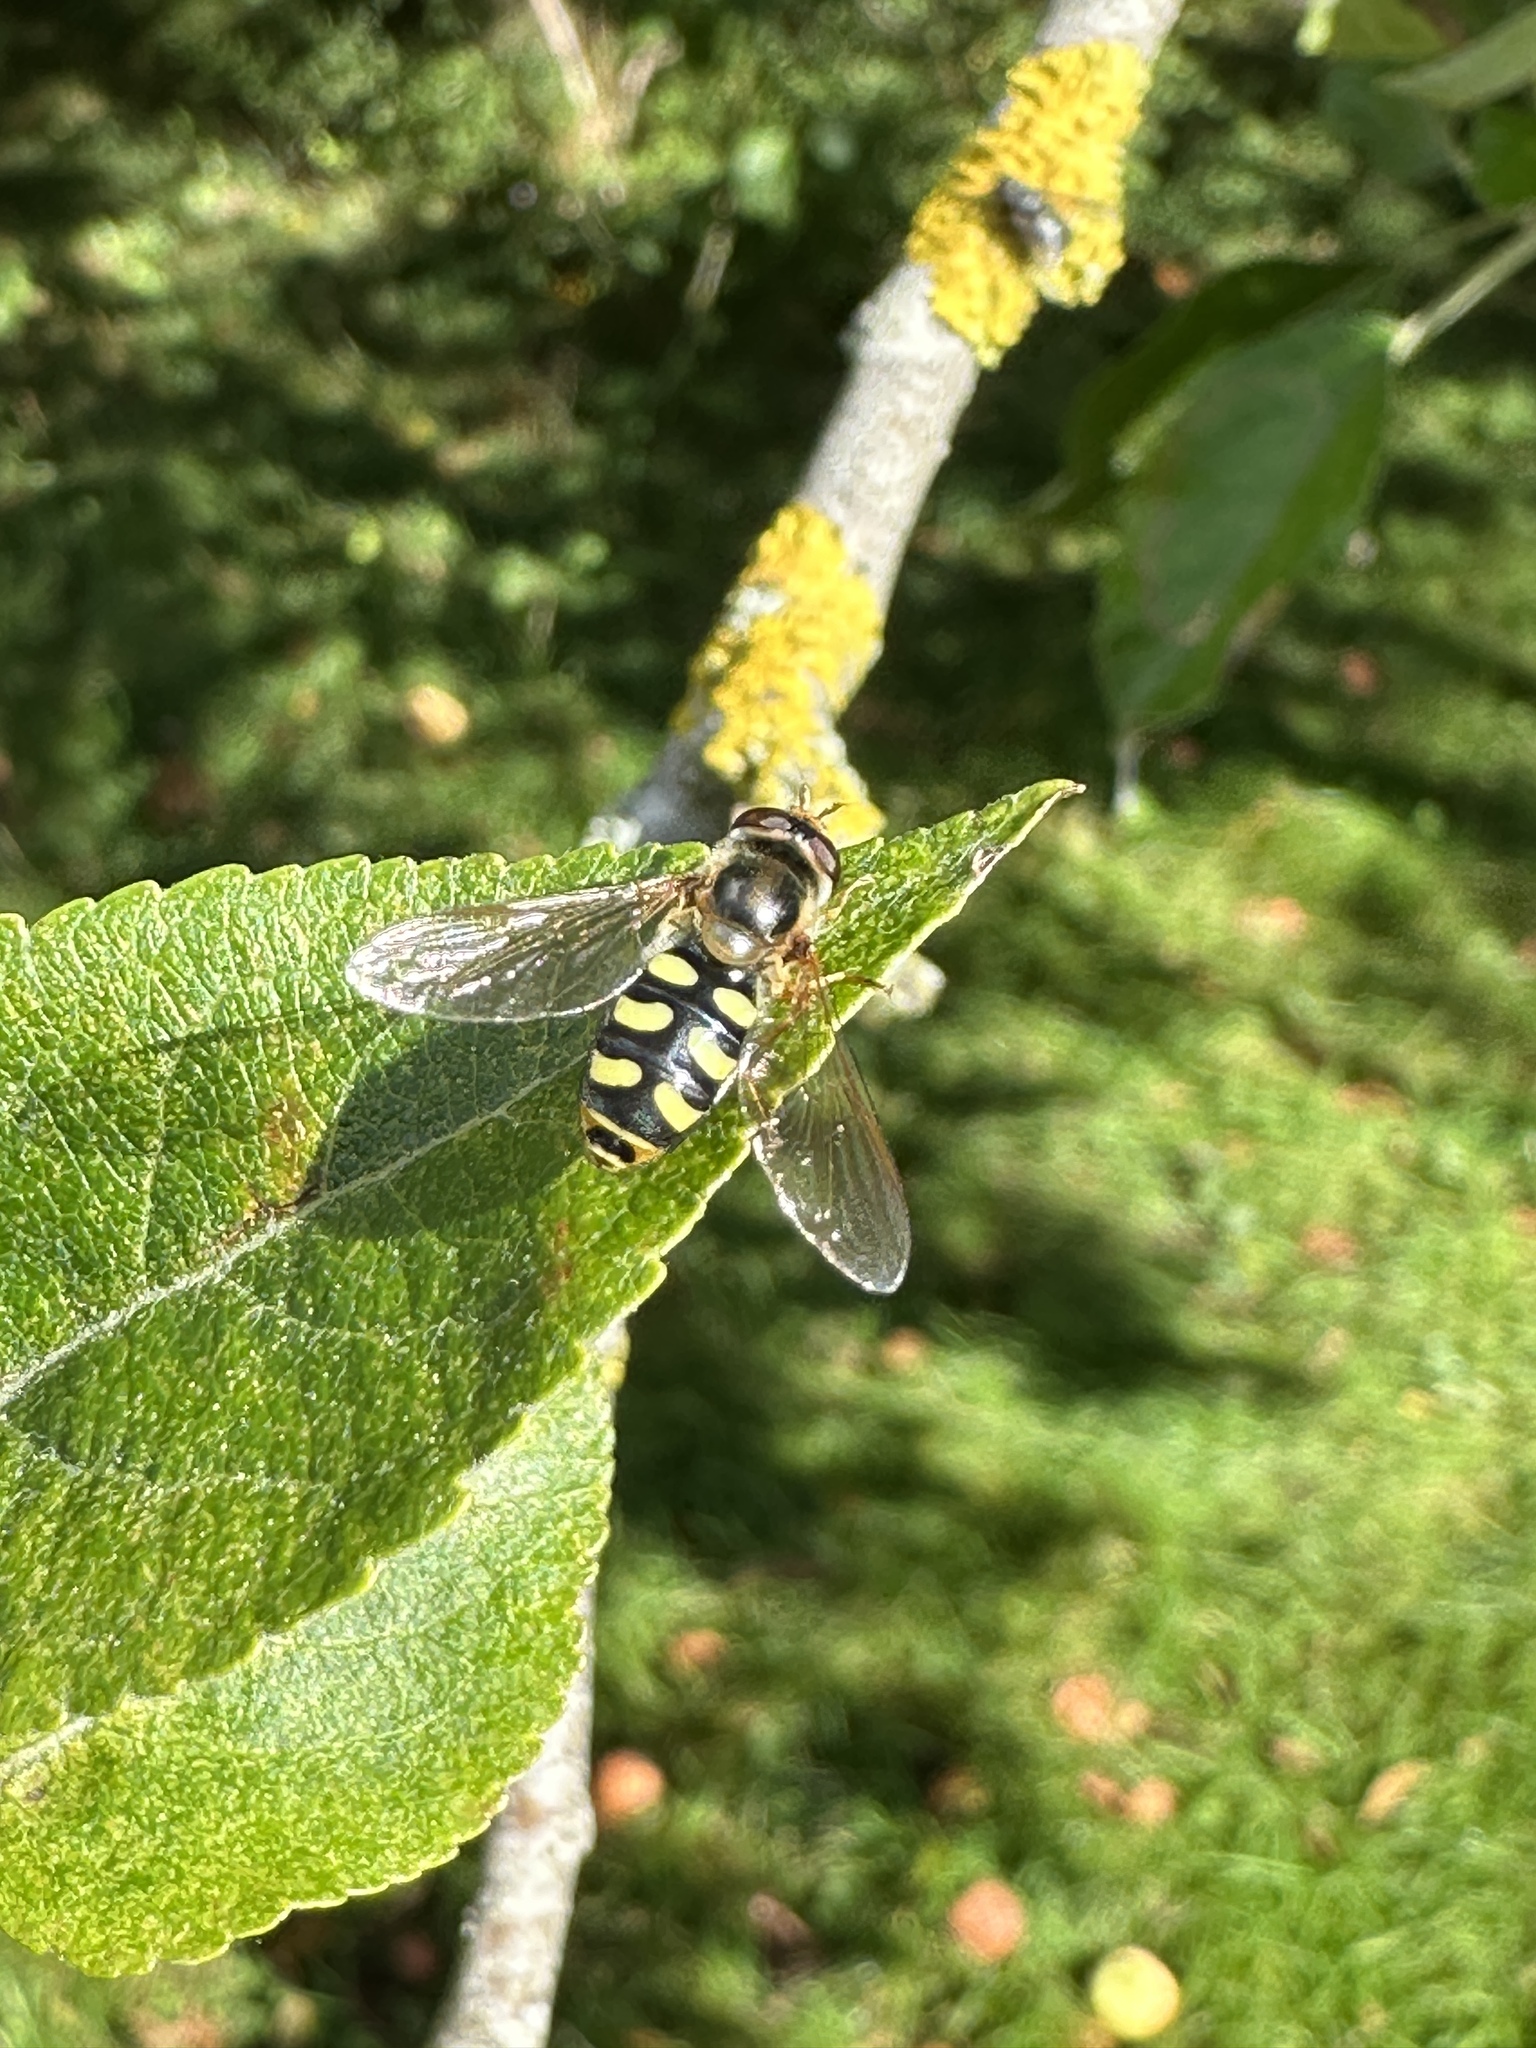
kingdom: Animalia
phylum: Arthropoda
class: Insecta
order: Diptera
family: Syrphidae
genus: Eupeodes
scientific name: Eupeodes
